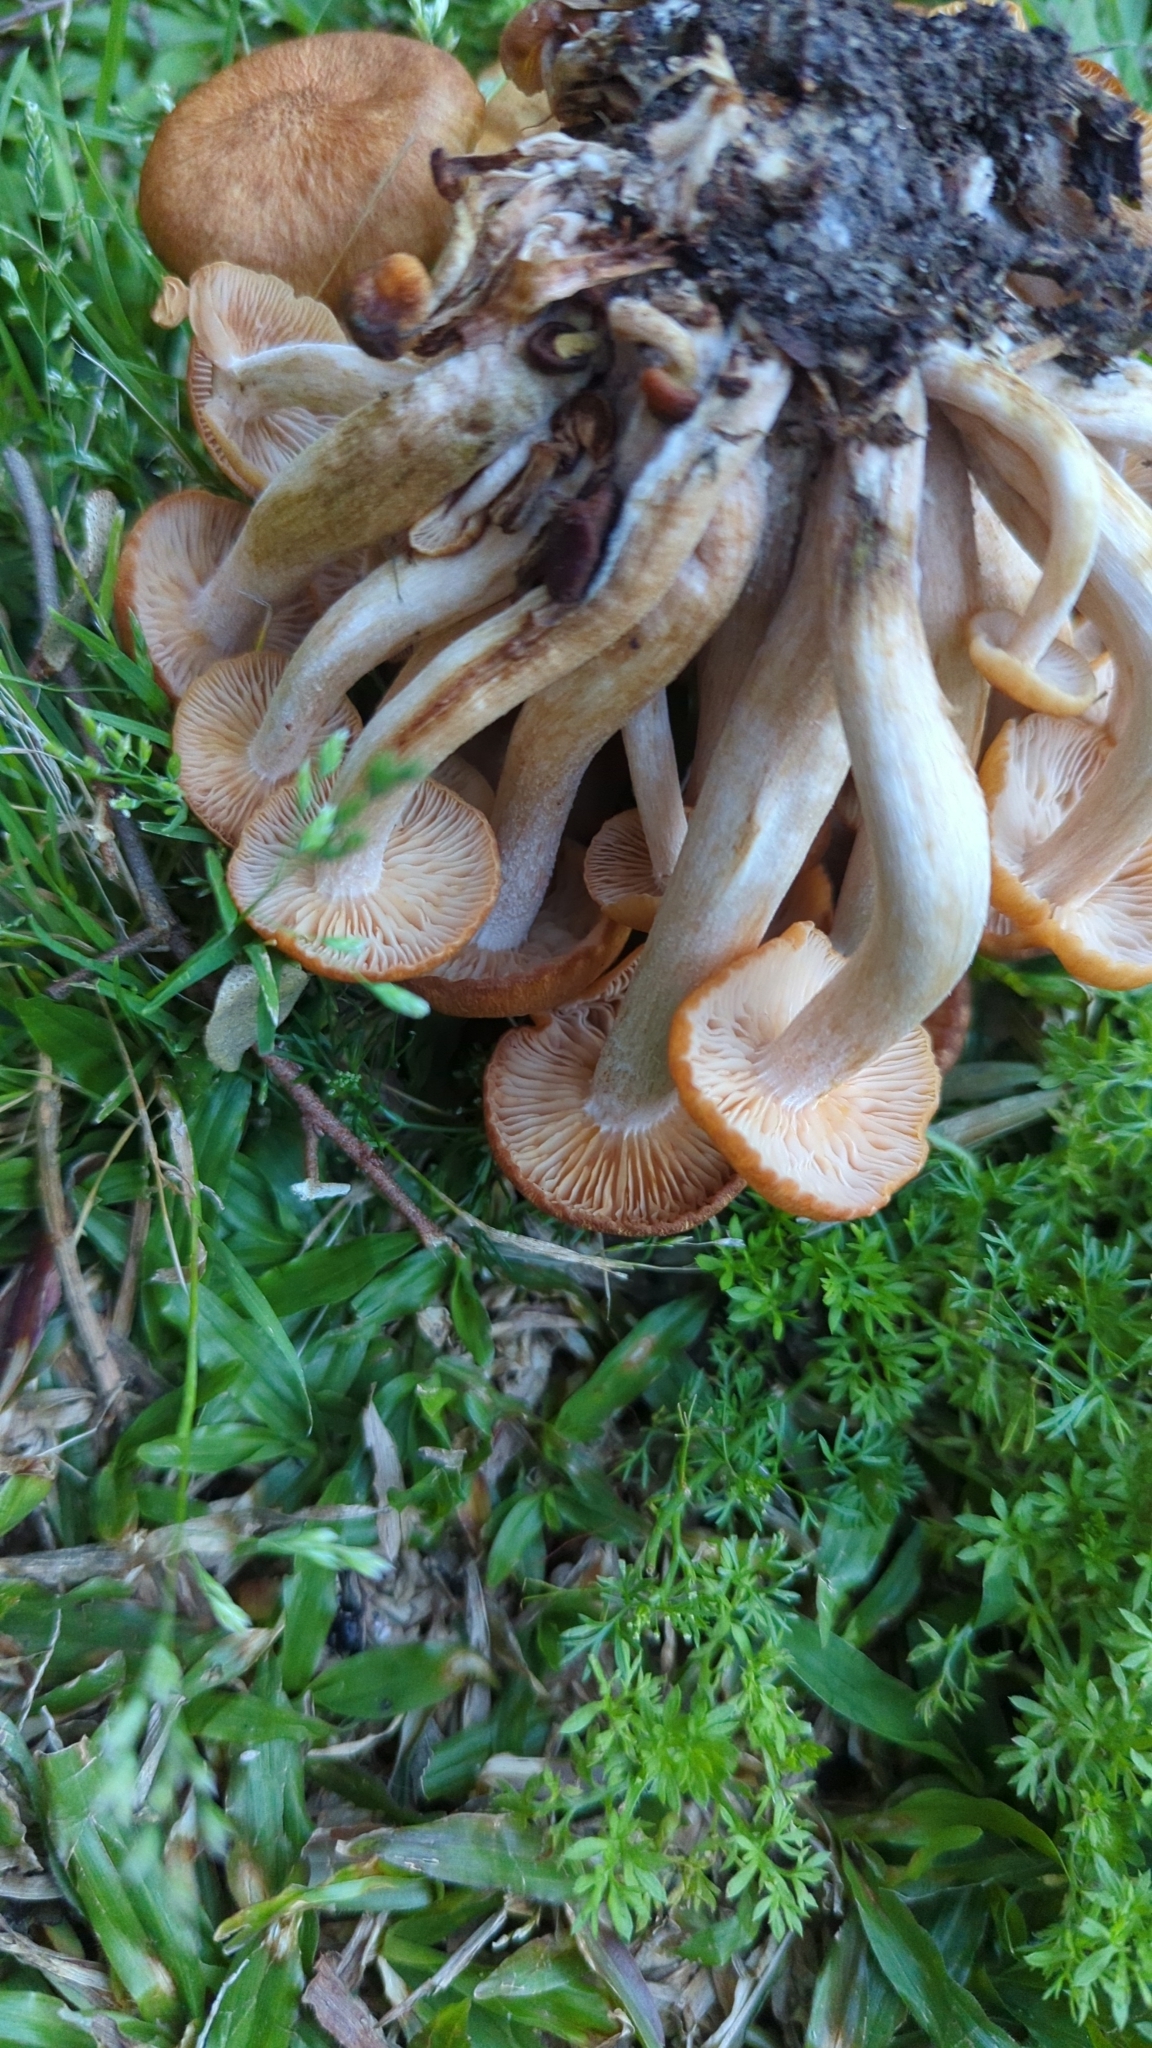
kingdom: Fungi
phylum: Basidiomycota
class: Agaricomycetes
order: Agaricales
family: Physalacriaceae
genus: Desarmillaria
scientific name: Desarmillaria caespitosa
